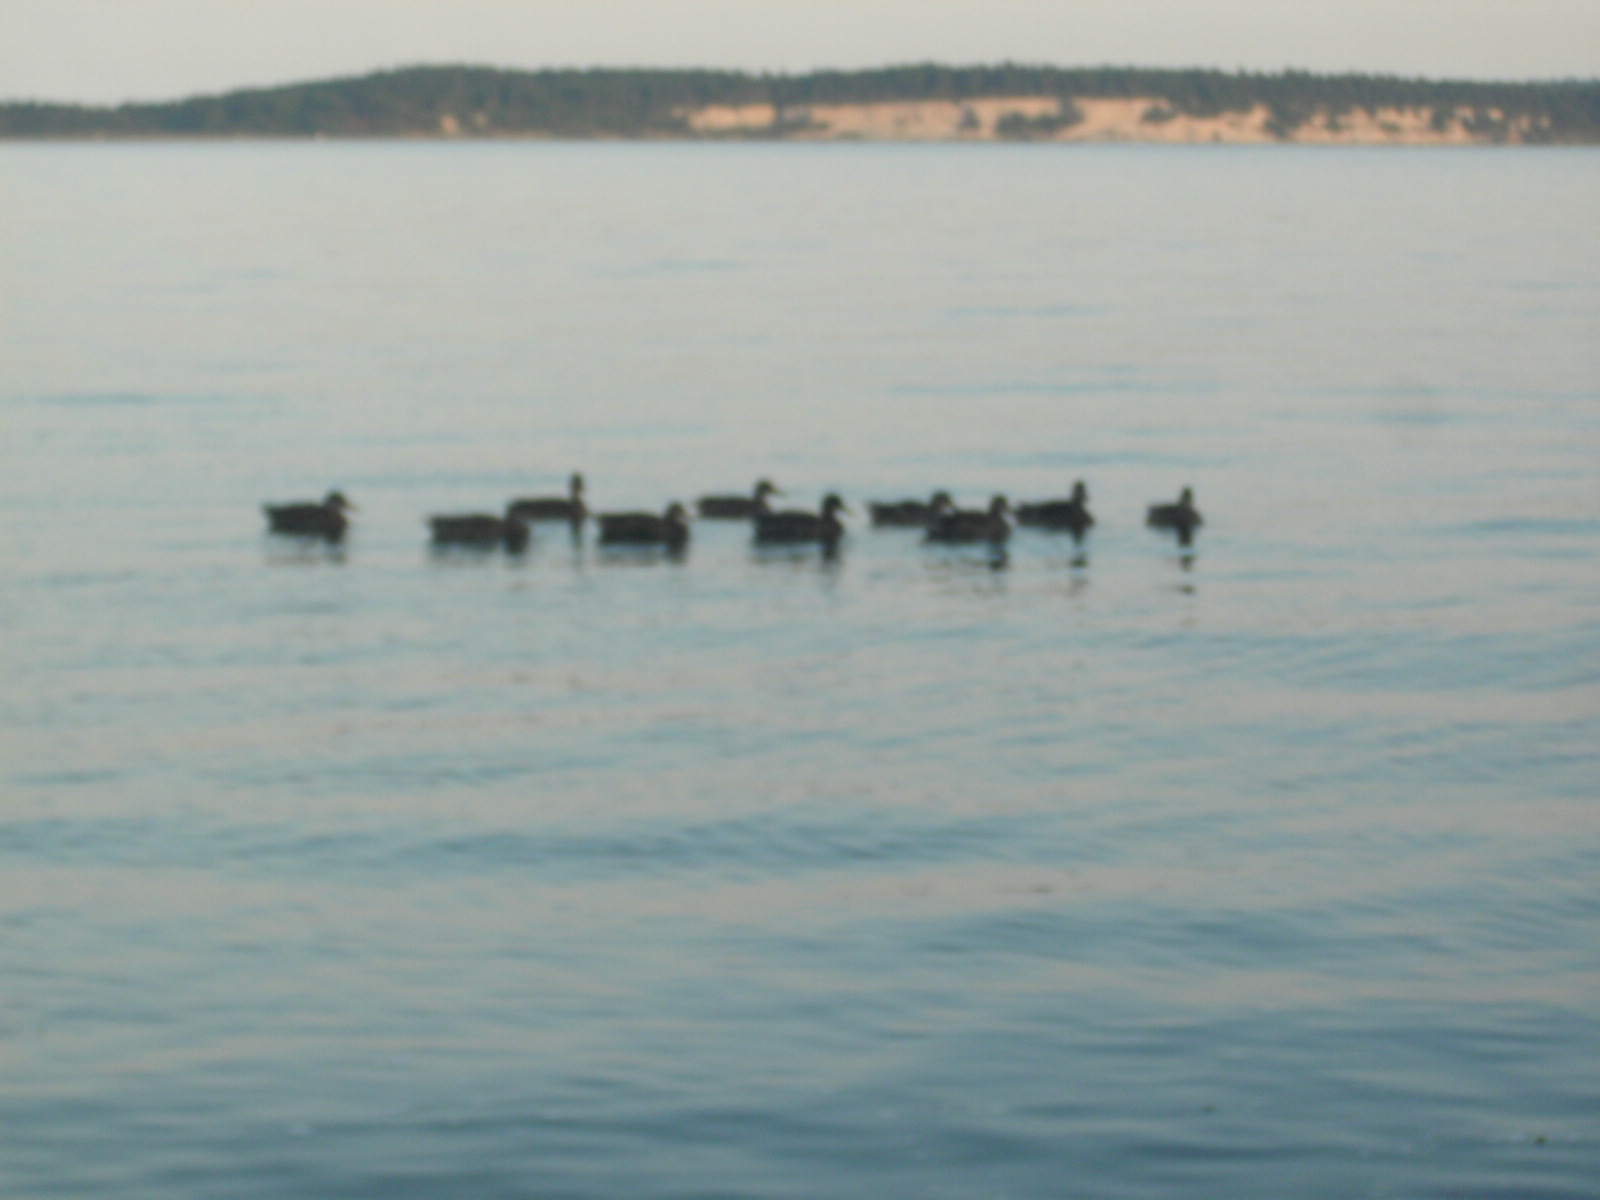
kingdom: Animalia
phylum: Chordata
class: Aves
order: Anseriformes
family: Anatidae
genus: Anas
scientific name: Anas platyrhynchos
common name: Mallard
